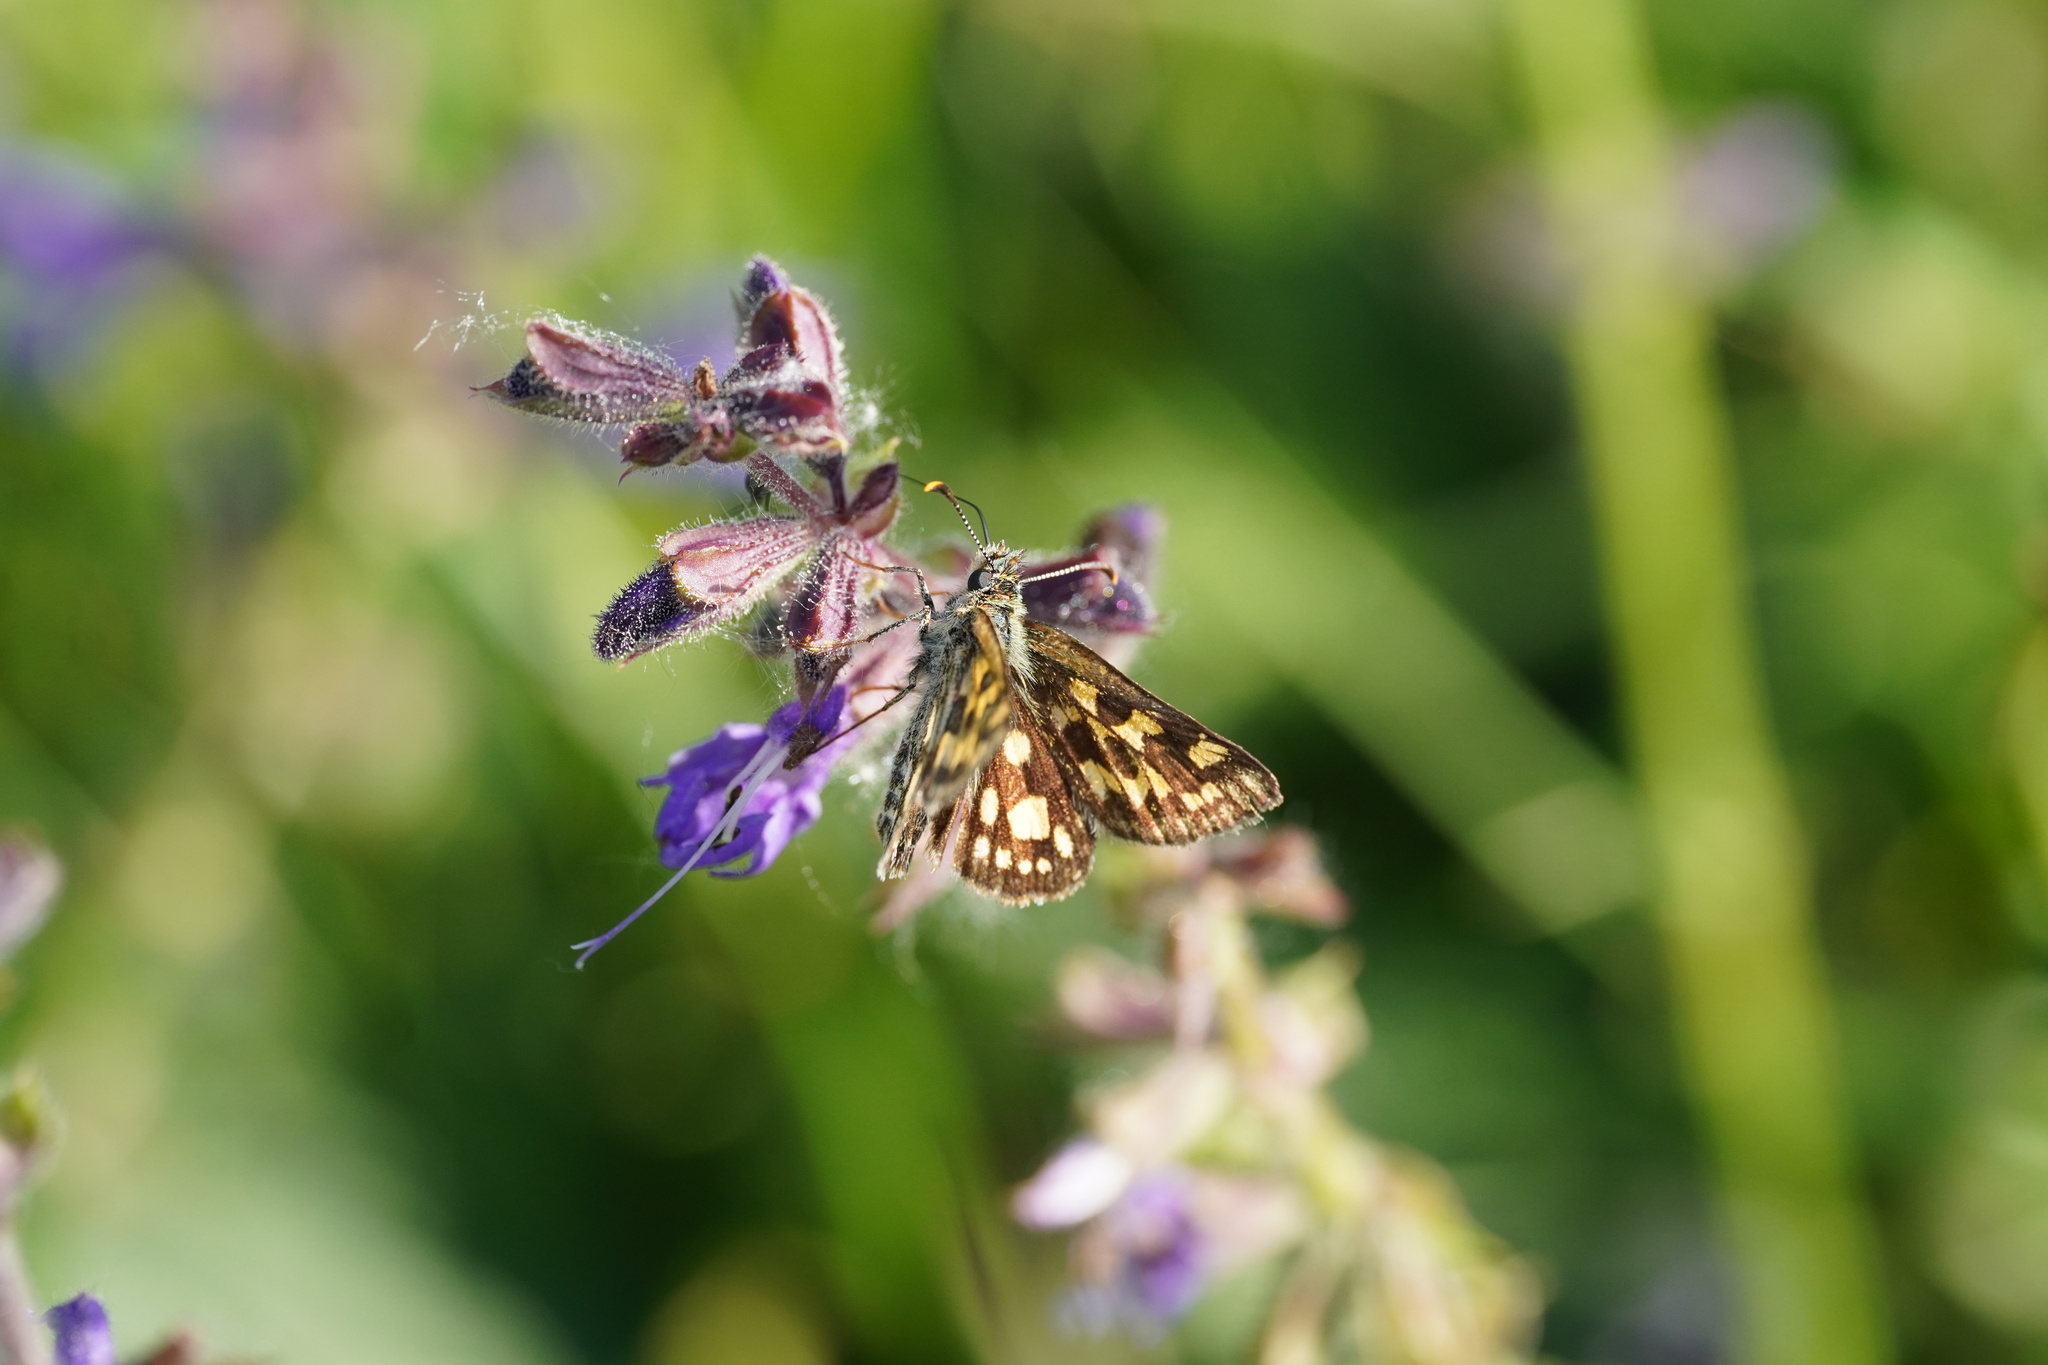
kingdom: Animalia
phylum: Arthropoda
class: Insecta
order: Lepidoptera
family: Hesperiidae
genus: Carterocephalus
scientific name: Carterocephalus palaemon
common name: Chequered skipper
